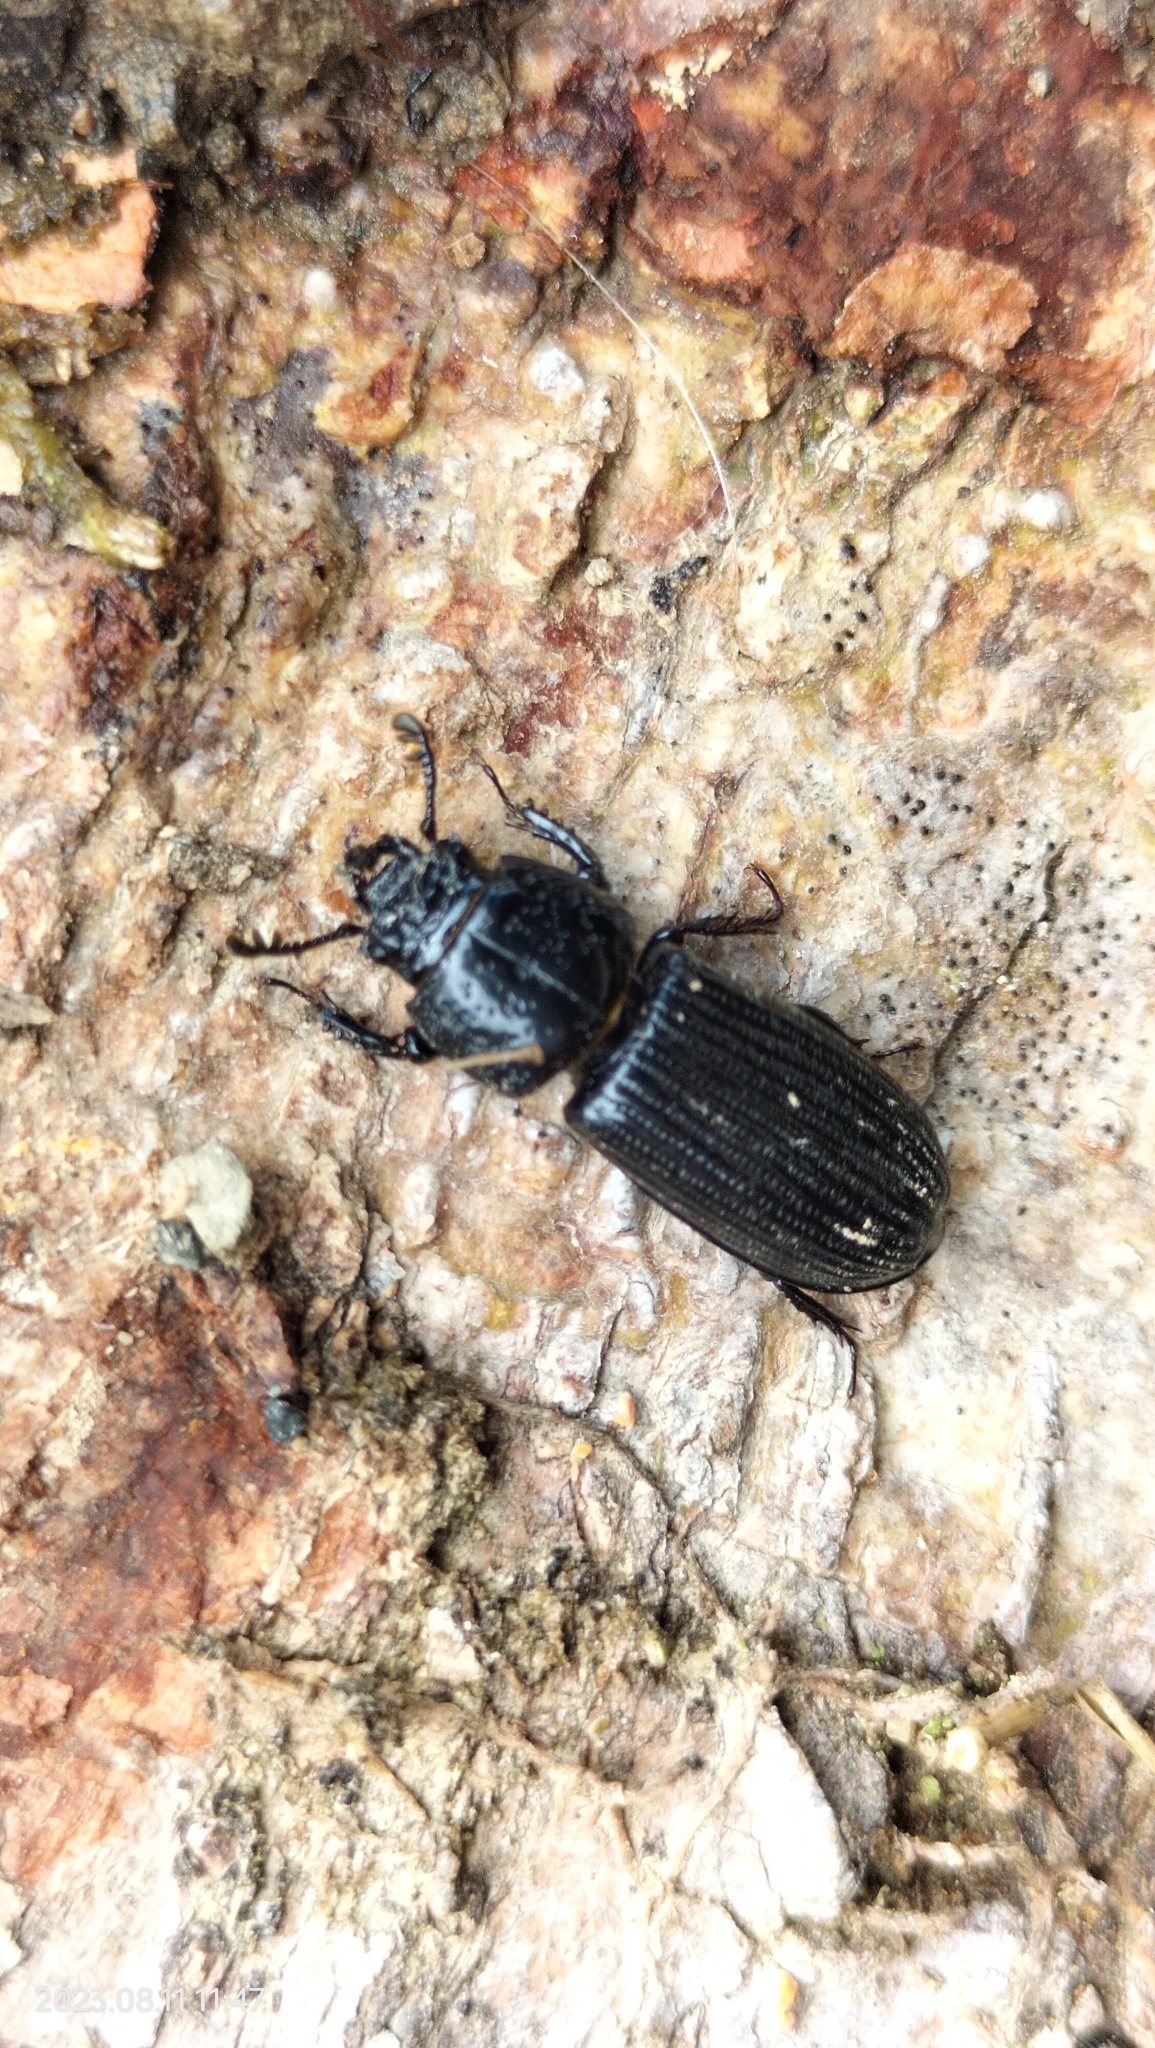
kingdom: Animalia
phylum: Arthropoda
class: Insecta
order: Coleoptera
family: Carabidae
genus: Laemostenus
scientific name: Laemostenus complanatus
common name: Cosmopolitan ground beetle
